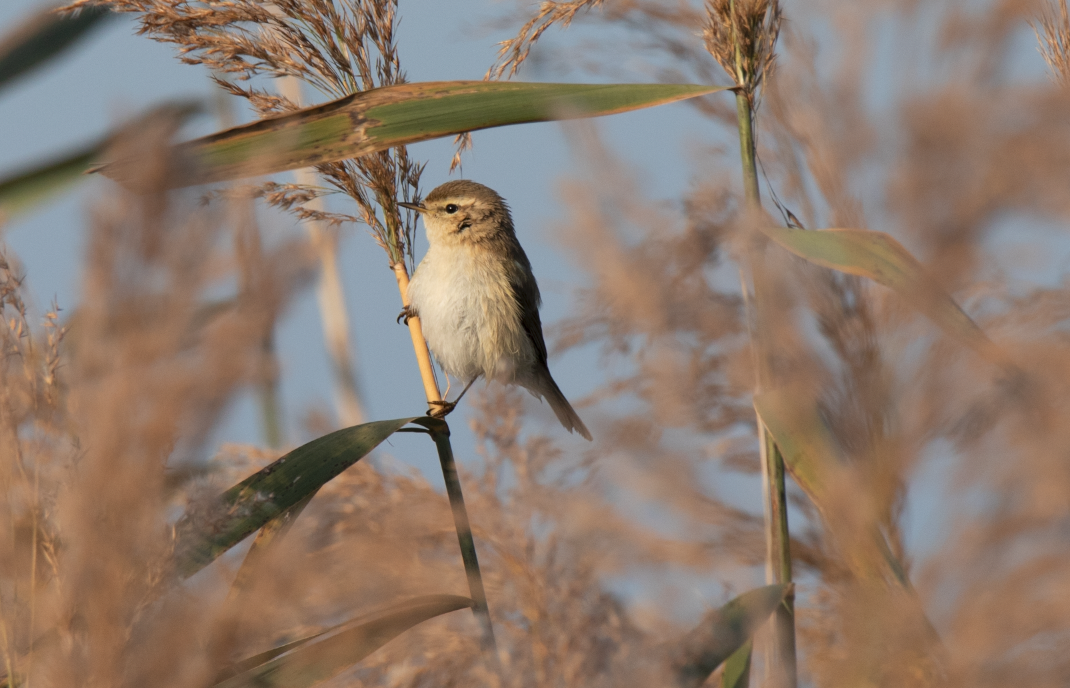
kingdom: Animalia
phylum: Chordata
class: Aves
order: Passeriformes
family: Phylloscopidae
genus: Phylloscopus
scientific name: Phylloscopus collybita
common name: Common chiffchaff
